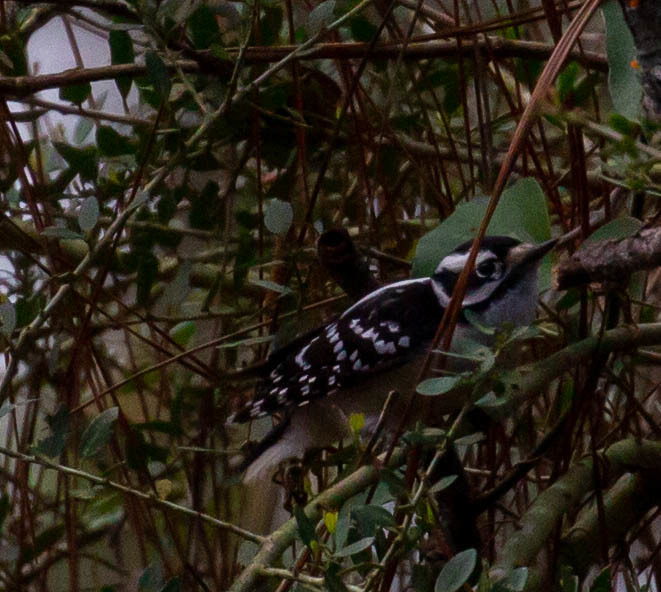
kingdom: Animalia
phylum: Chordata
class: Aves
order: Piciformes
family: Picidae
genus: Dryobates
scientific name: Dryobates pubescens
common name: Downy woodpecker
